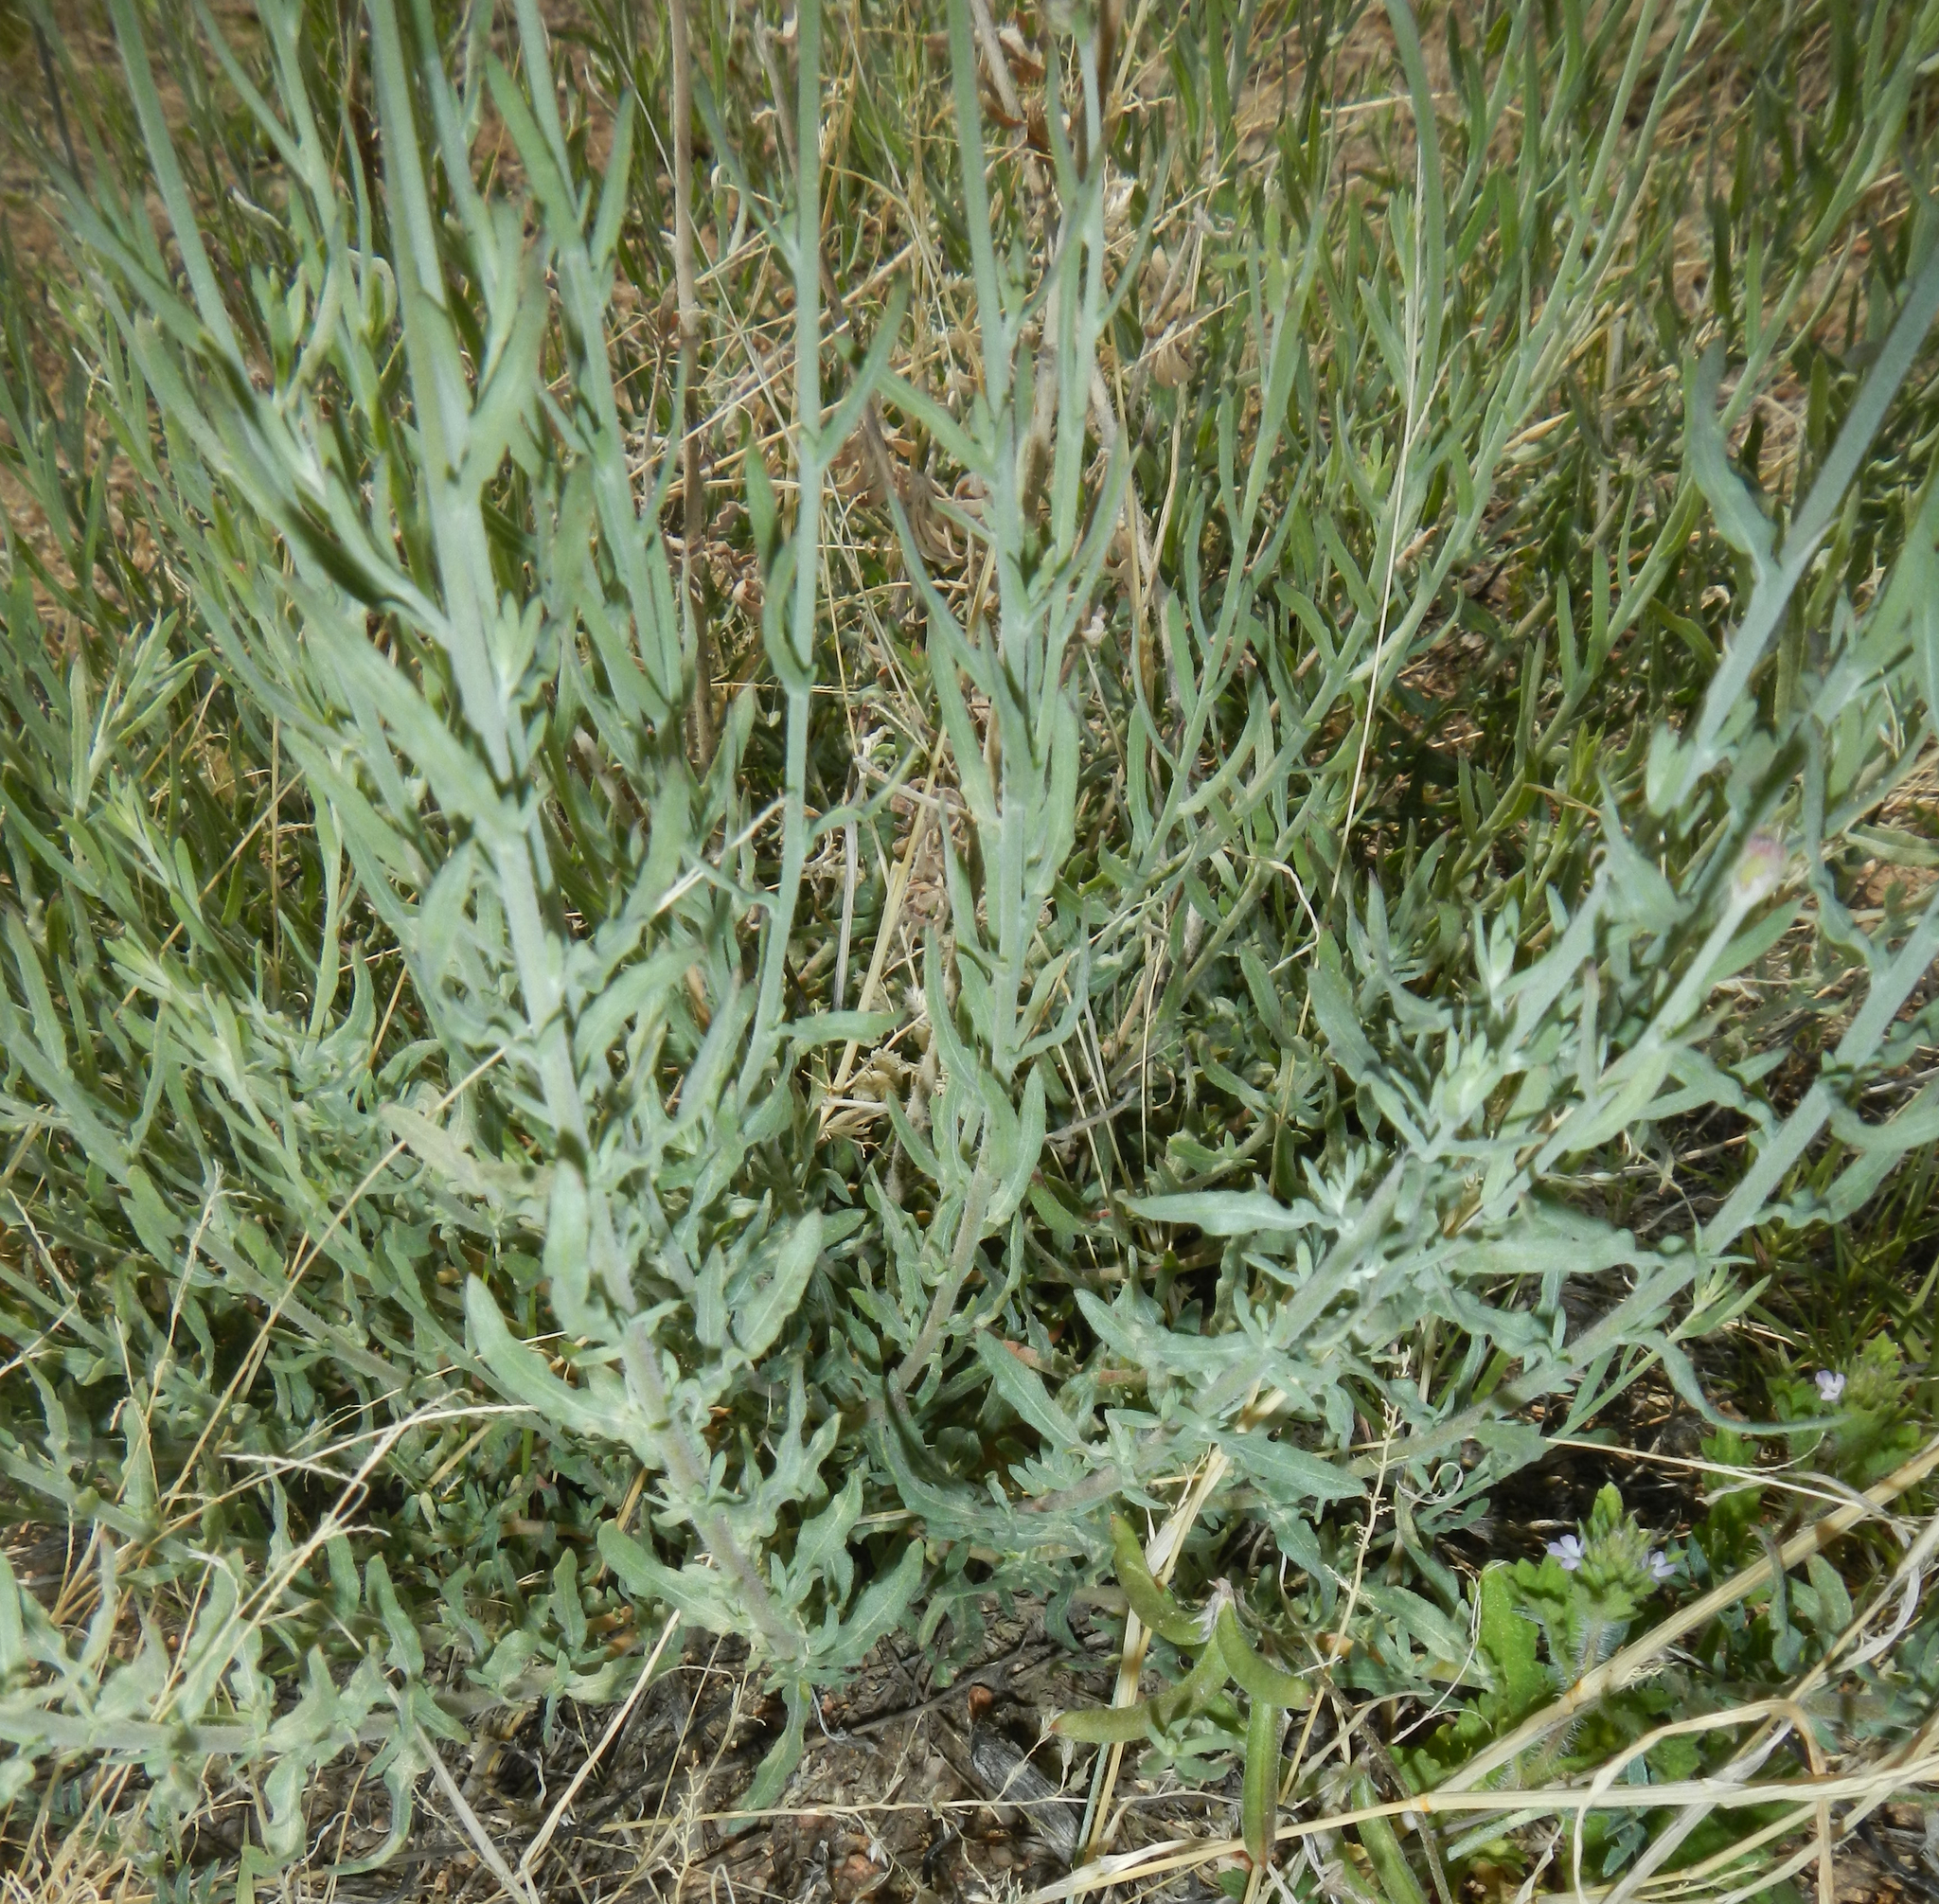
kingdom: Plantae
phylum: Tracheophyta
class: Magnoliopsida
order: Myrtales
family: Onagraceae
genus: Oenothera
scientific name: Oenothera suffrutescens
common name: Scarlet beeblossom
